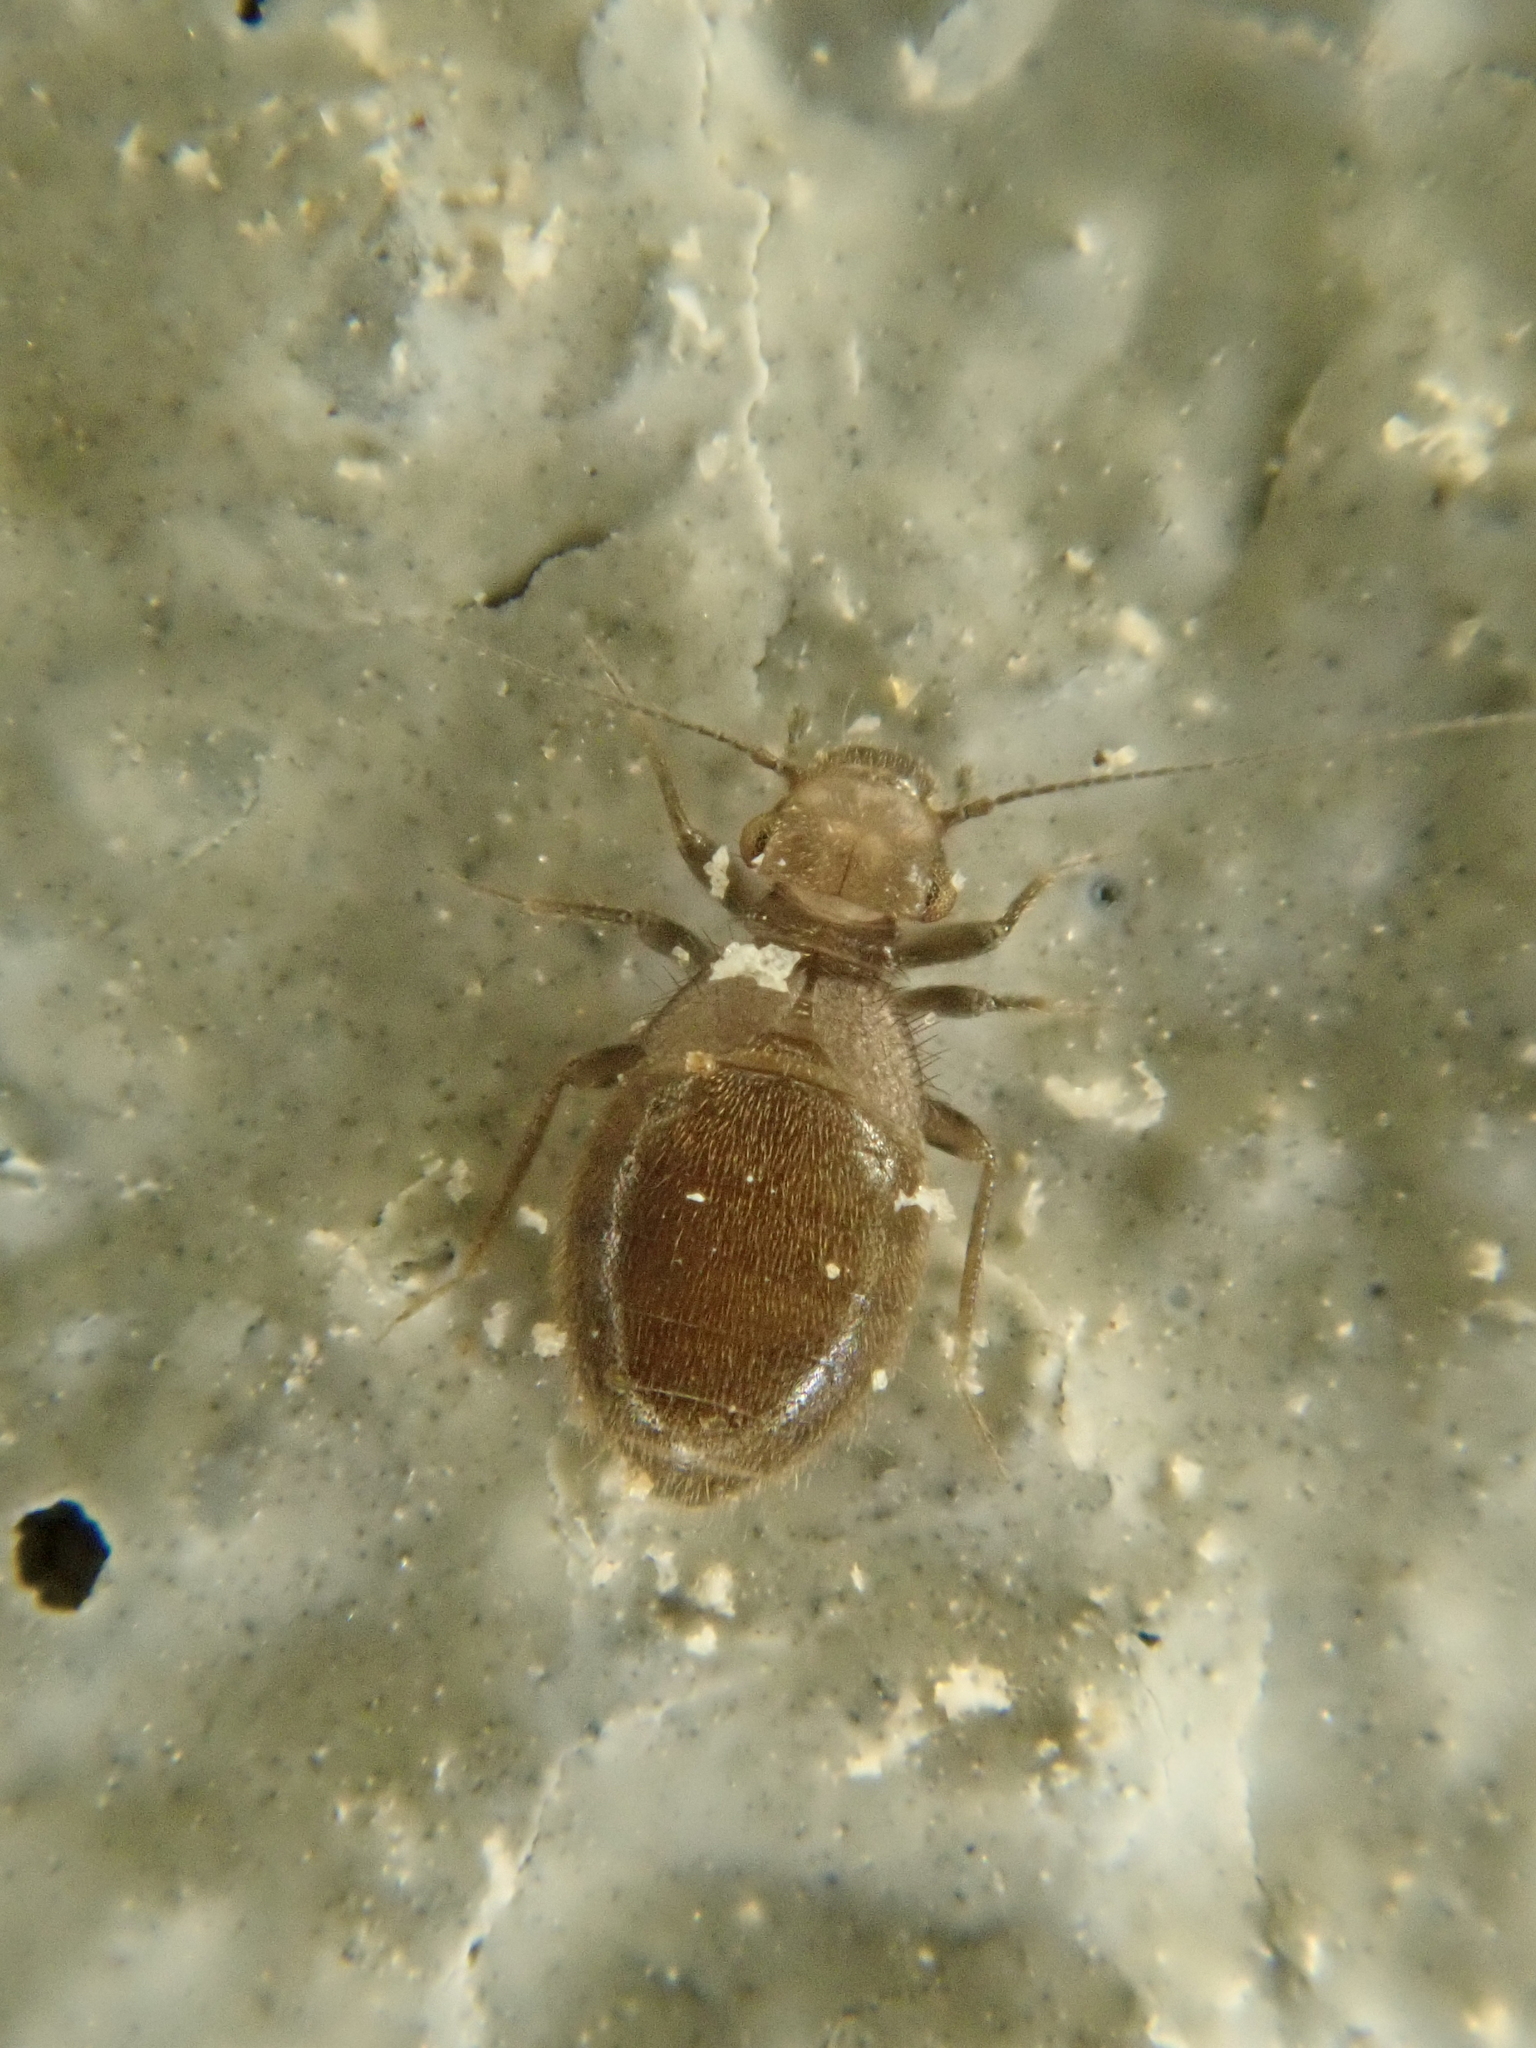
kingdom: Animalia
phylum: Arthropoda
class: Insecta
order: Psocodea
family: Trogiidae
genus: Lepinotus
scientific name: Lepinotus patruelis
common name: Granary book louse
